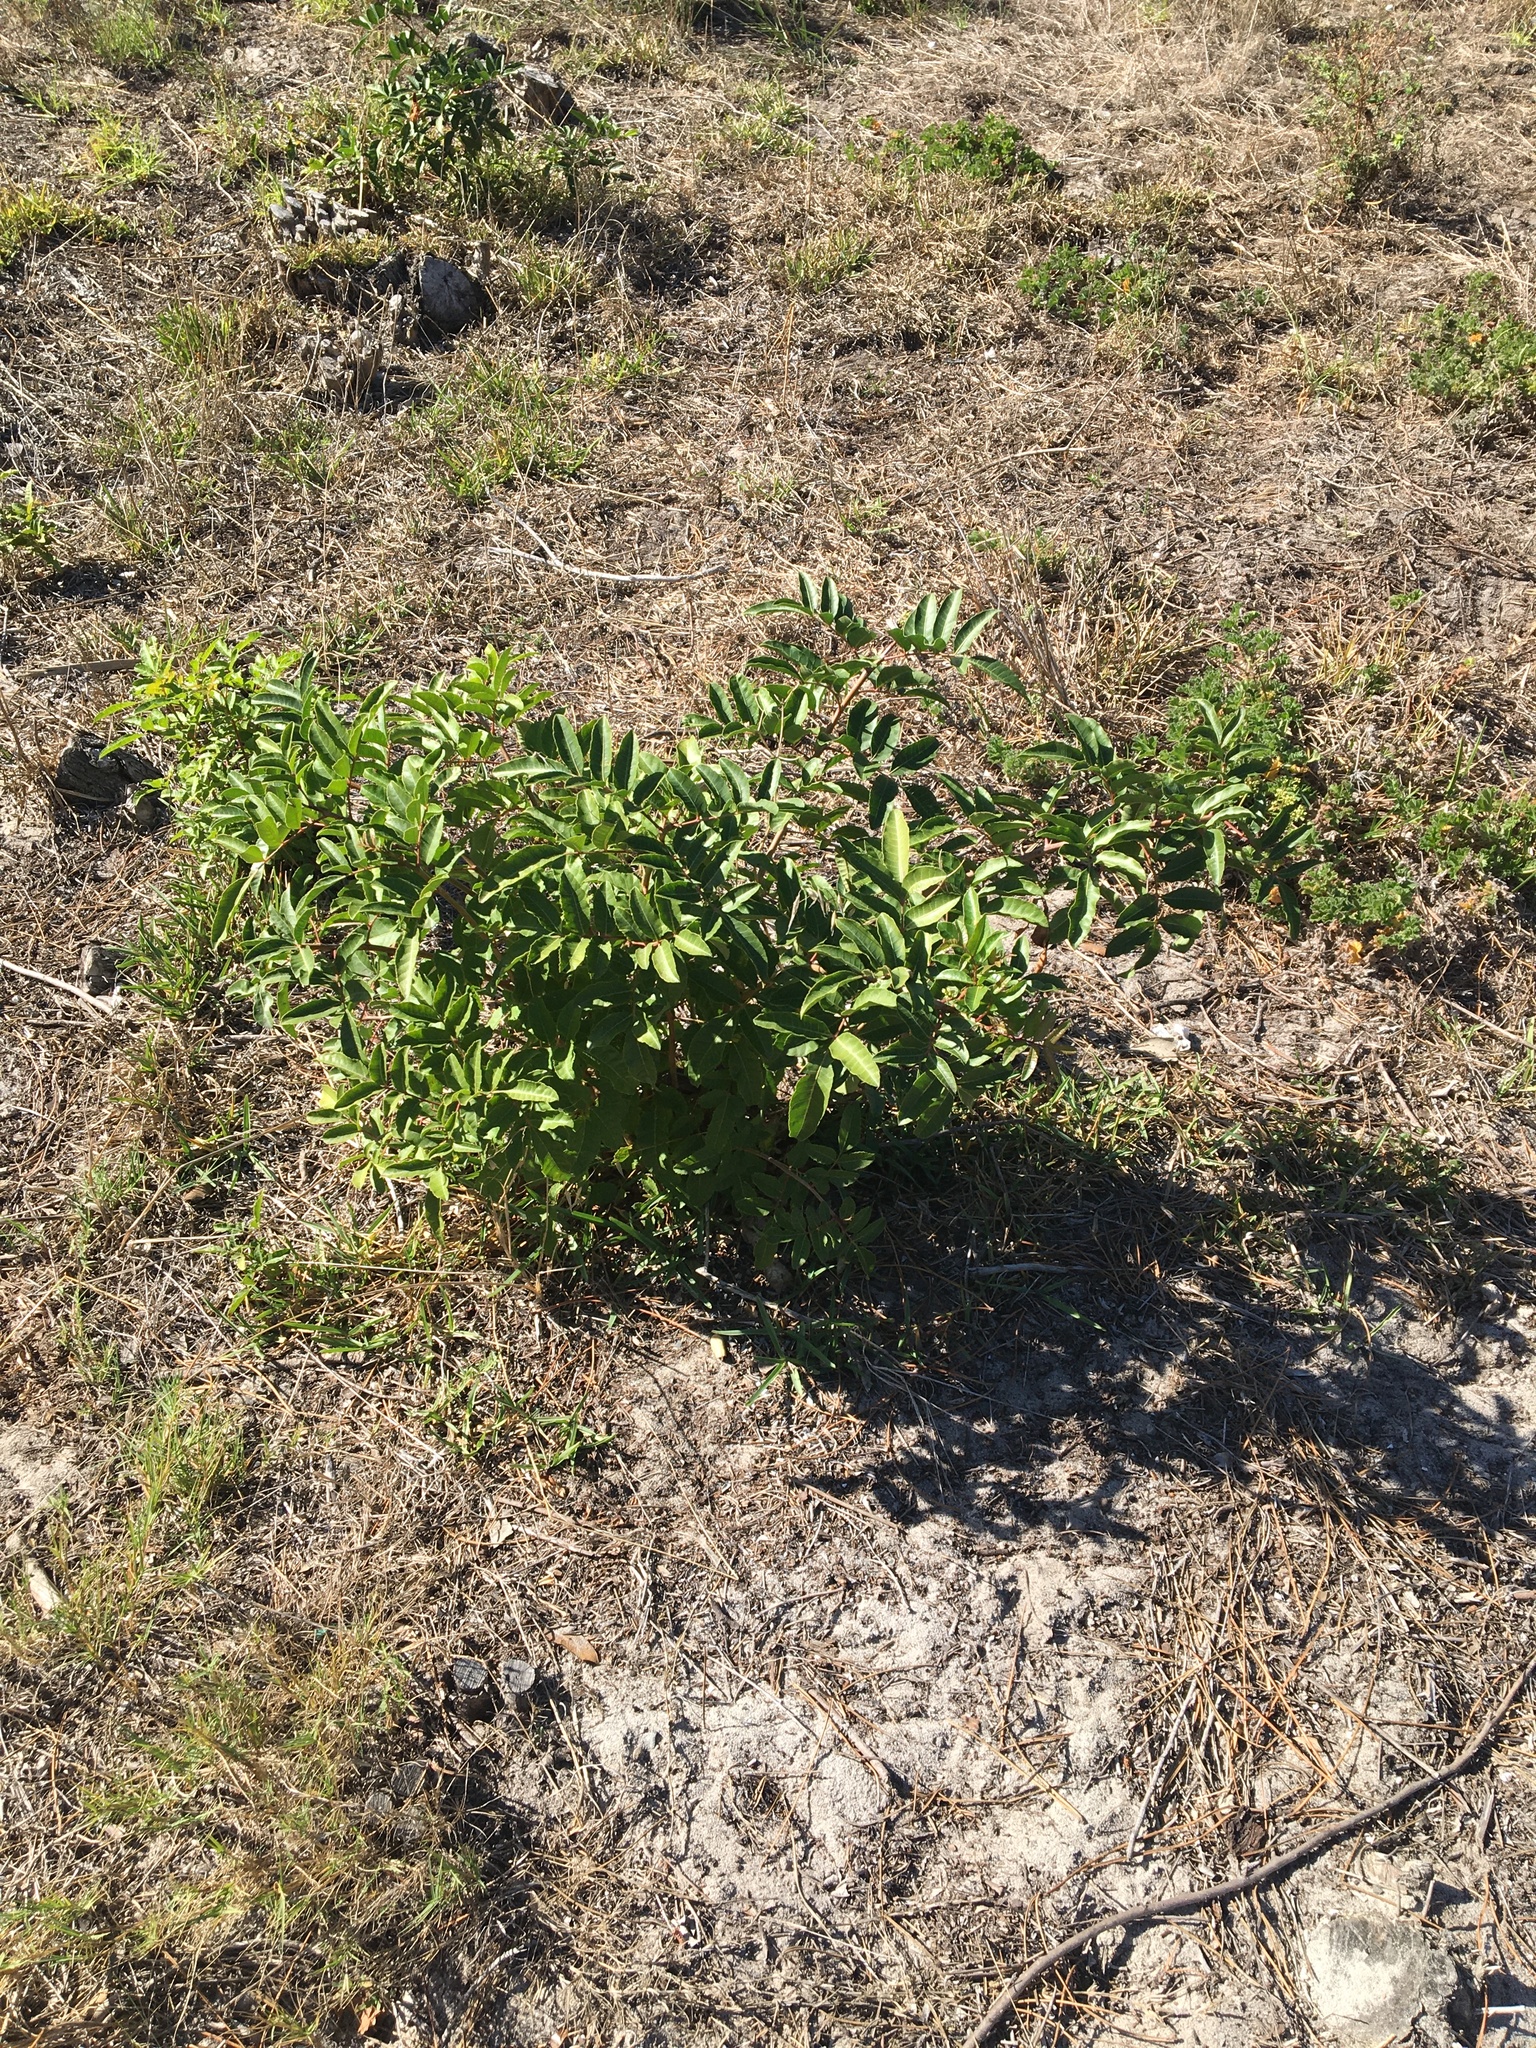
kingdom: Plantae
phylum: Tracheophyta
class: Magnoliopsida
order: Sapindales
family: Anacardiaceae
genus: Schinus
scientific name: Schinus terebinthifolia
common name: Brazilian peppertree
